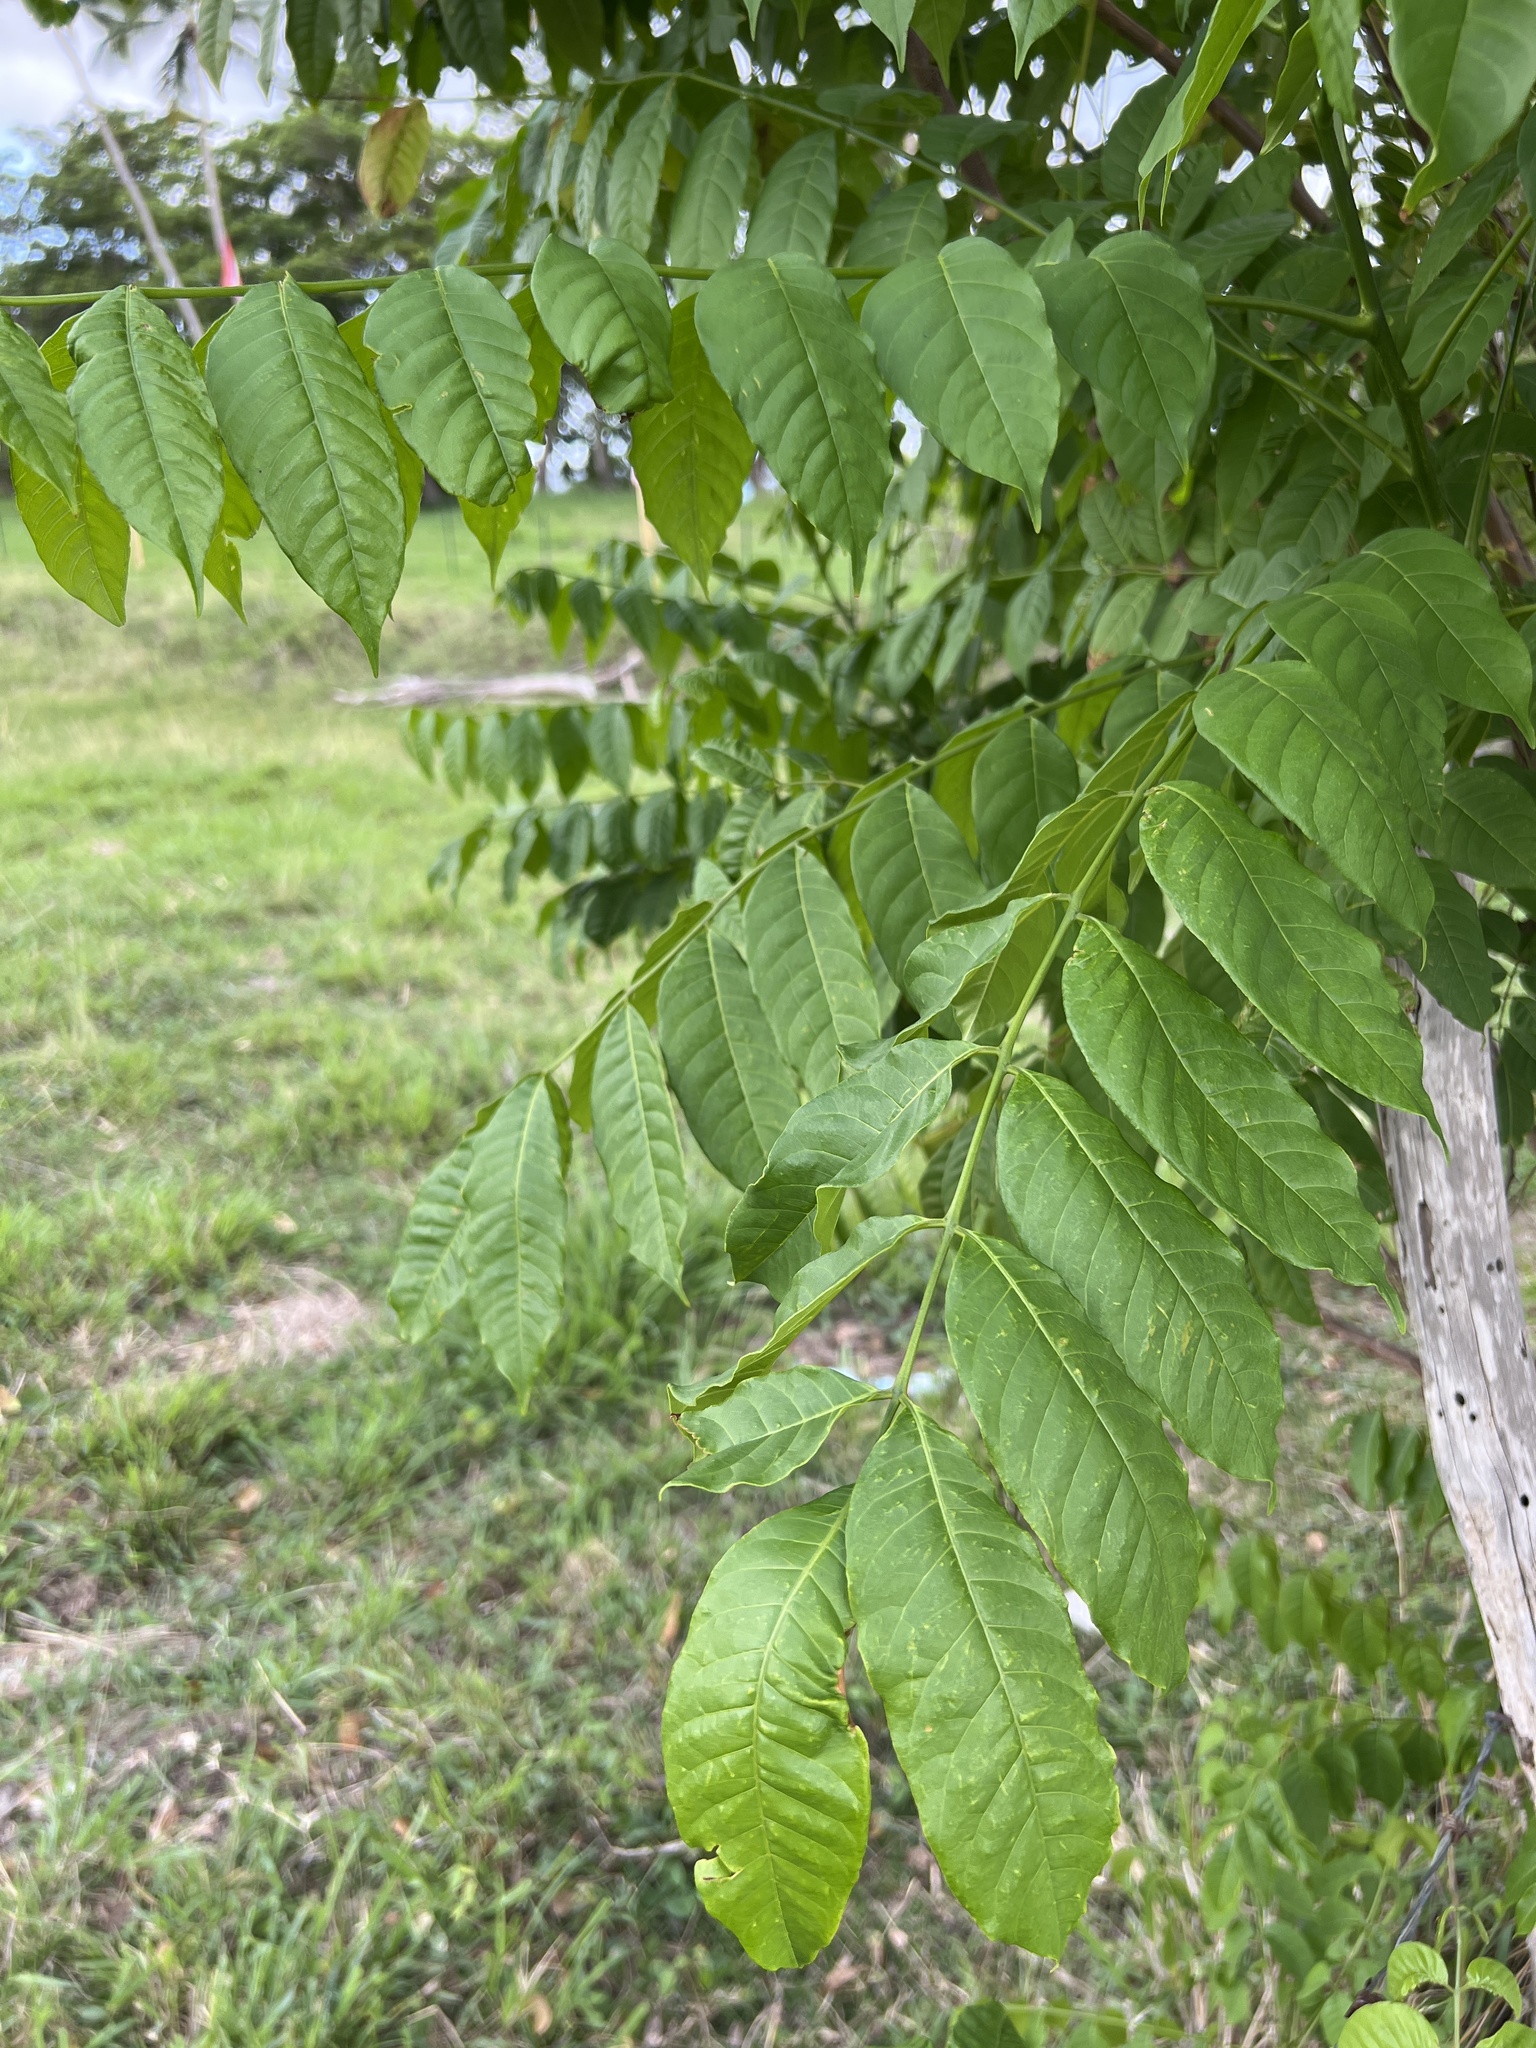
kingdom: Plantae
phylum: Tracheophyta
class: Magnoliopsida
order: Sapindales
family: Meliaceae
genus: Cedrela
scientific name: Cedrela odorata
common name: Red cedar
